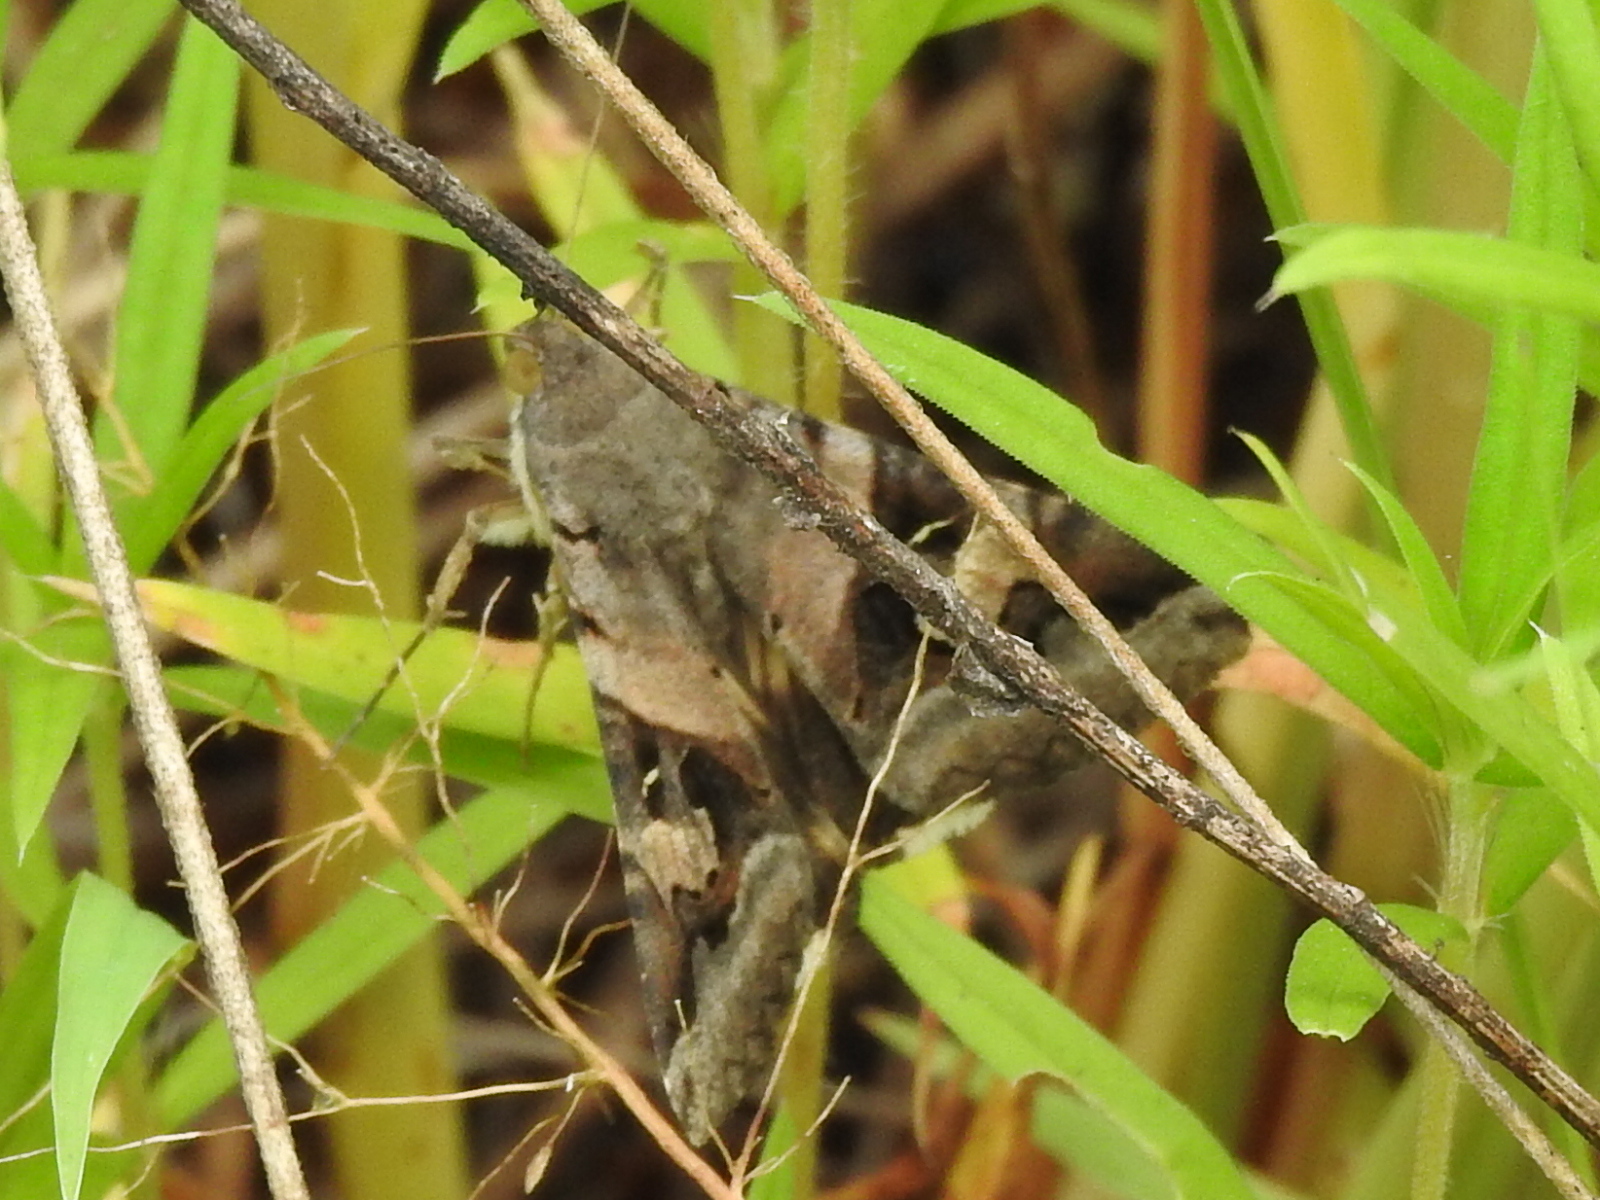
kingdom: Animalia
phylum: Arthropoda
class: Insecta
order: Lepidoptera
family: Erebidae
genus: Melipotis
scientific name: Melipotis indomita
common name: Moth
